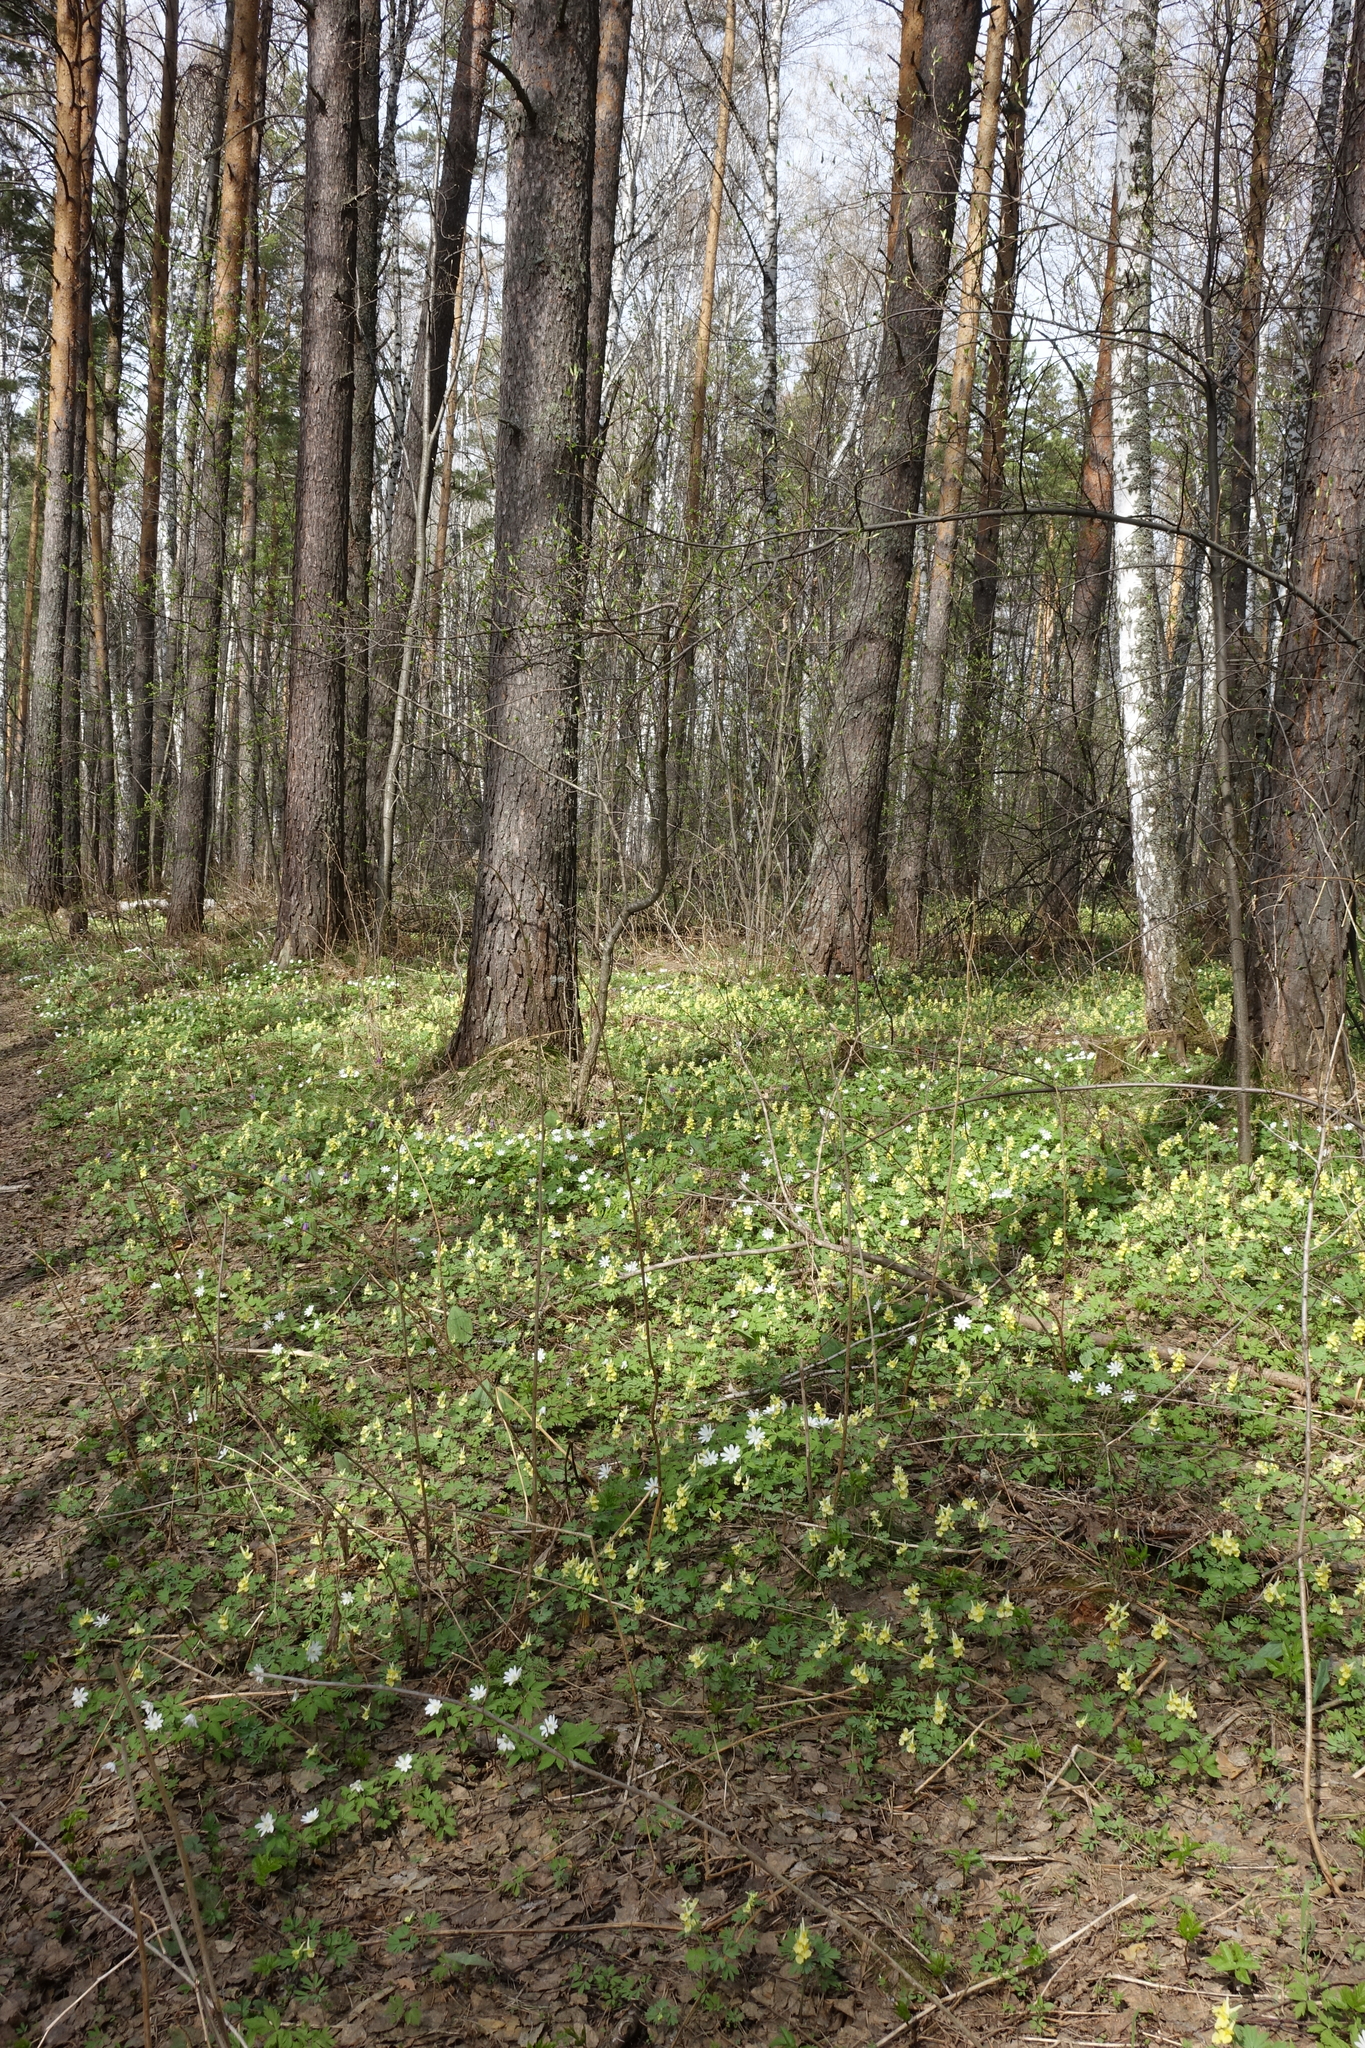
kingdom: Plantae
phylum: Tracheophyta
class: Magnoliopsida
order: Ranunculales
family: Papaveraceae
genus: Corydalis
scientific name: Corydalis bracteata
